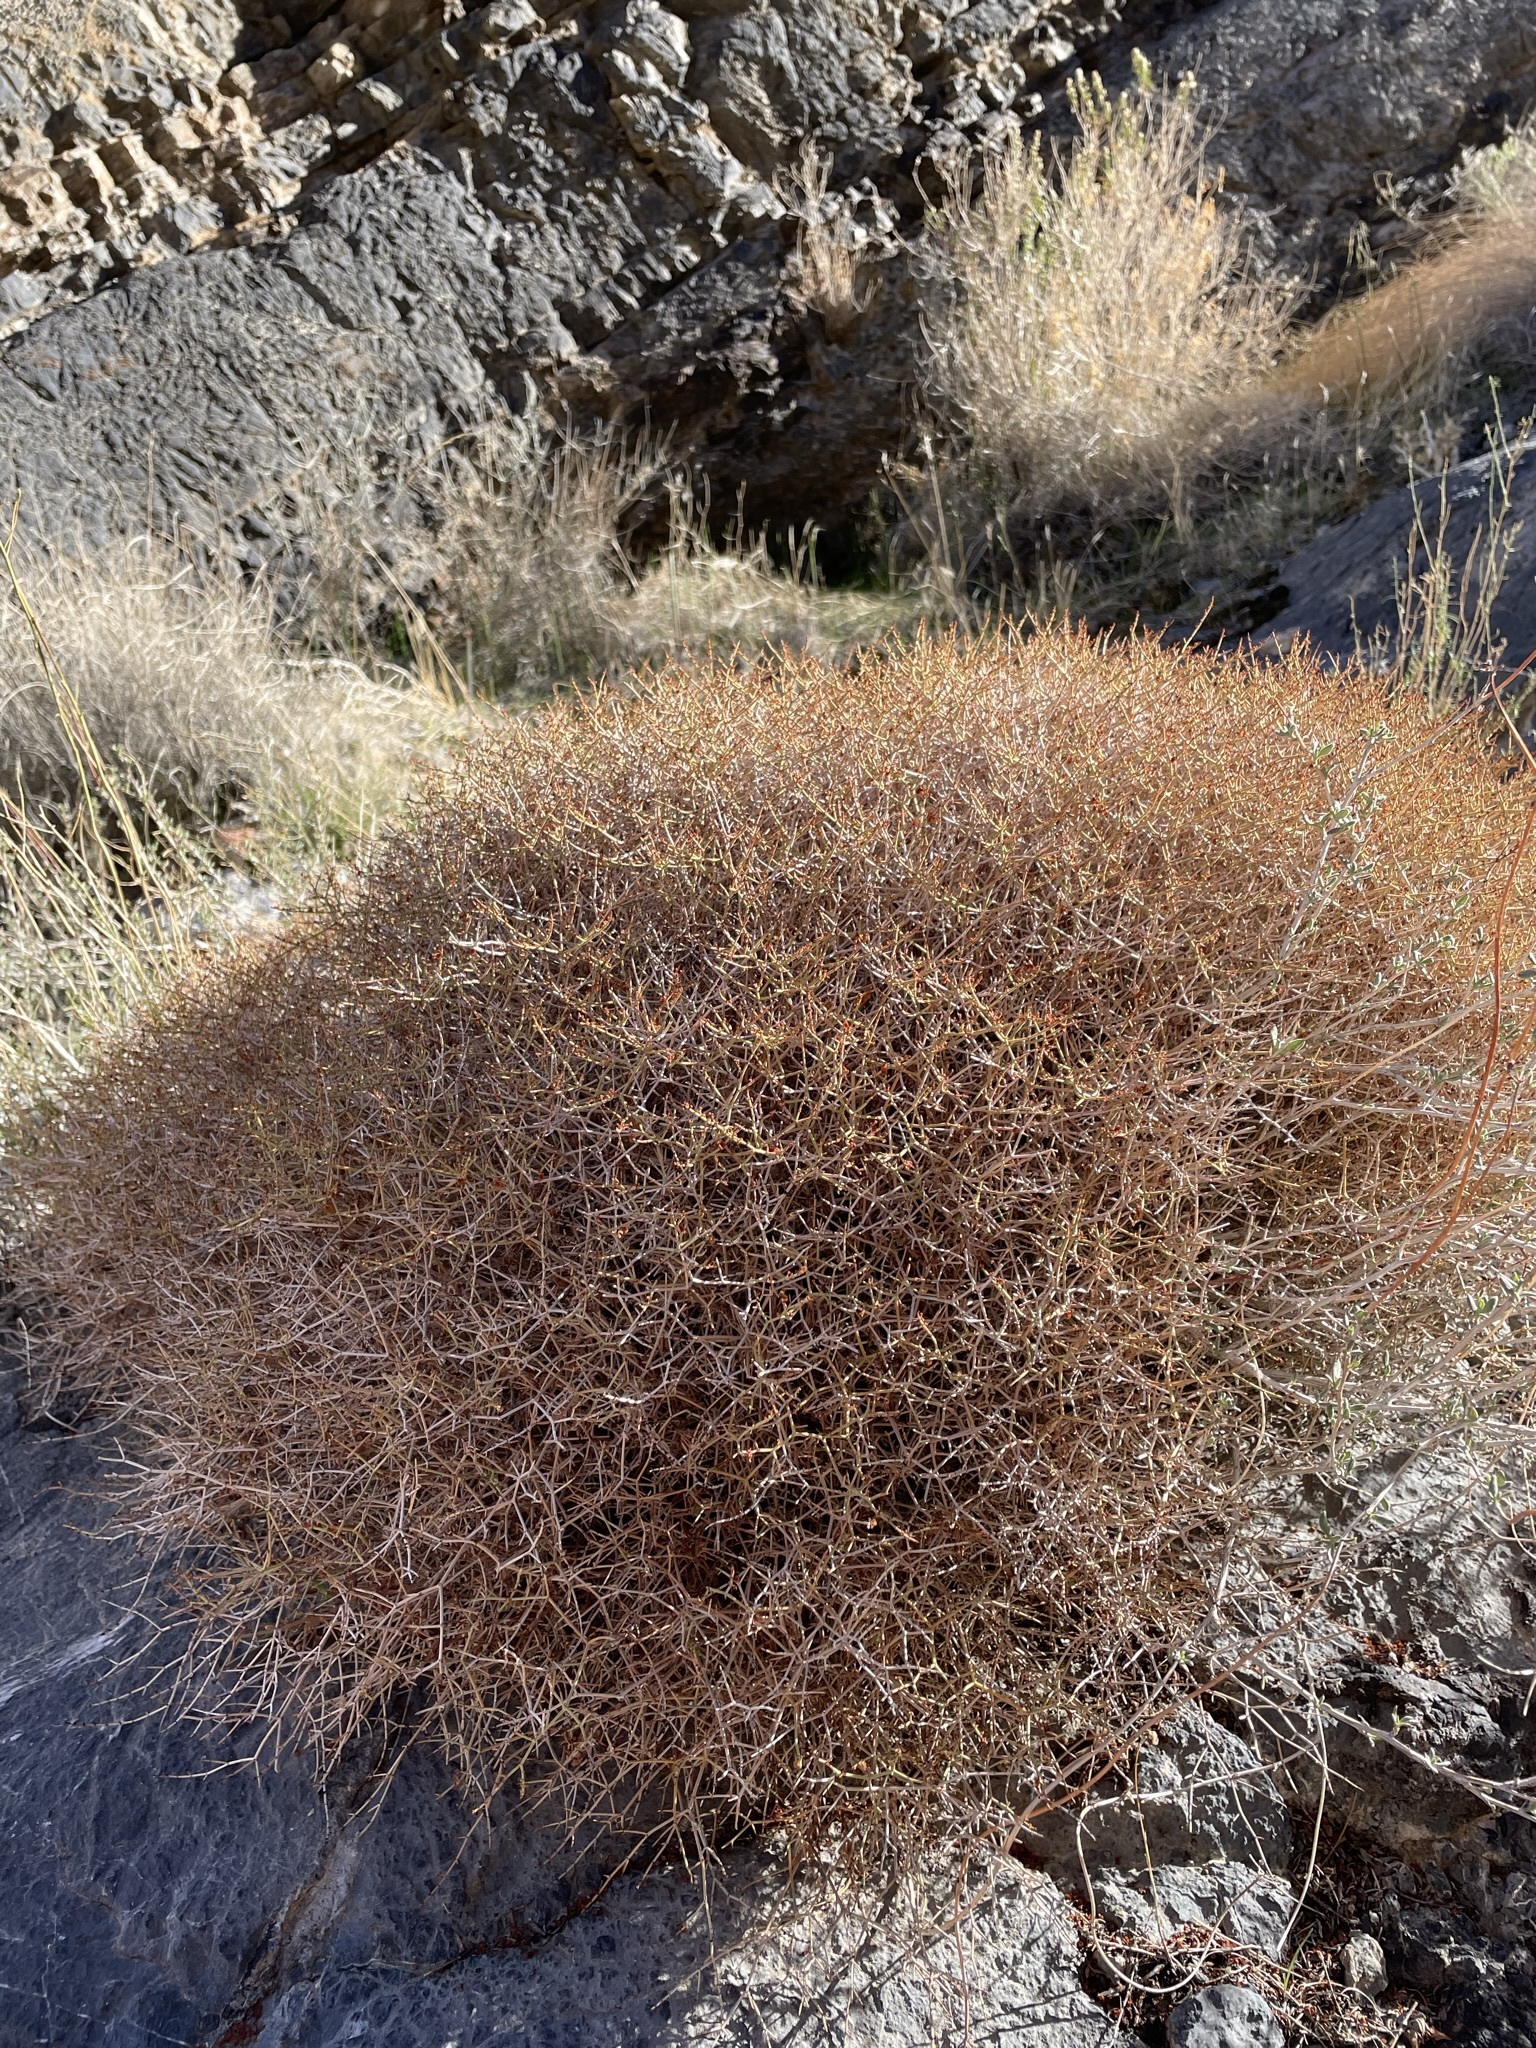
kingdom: Plantae
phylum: Tracheophyta
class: Magnoliopsida
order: Caryophyllales
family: Polygonaceae
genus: Eriogonum
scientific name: Eriogonum heermannii
